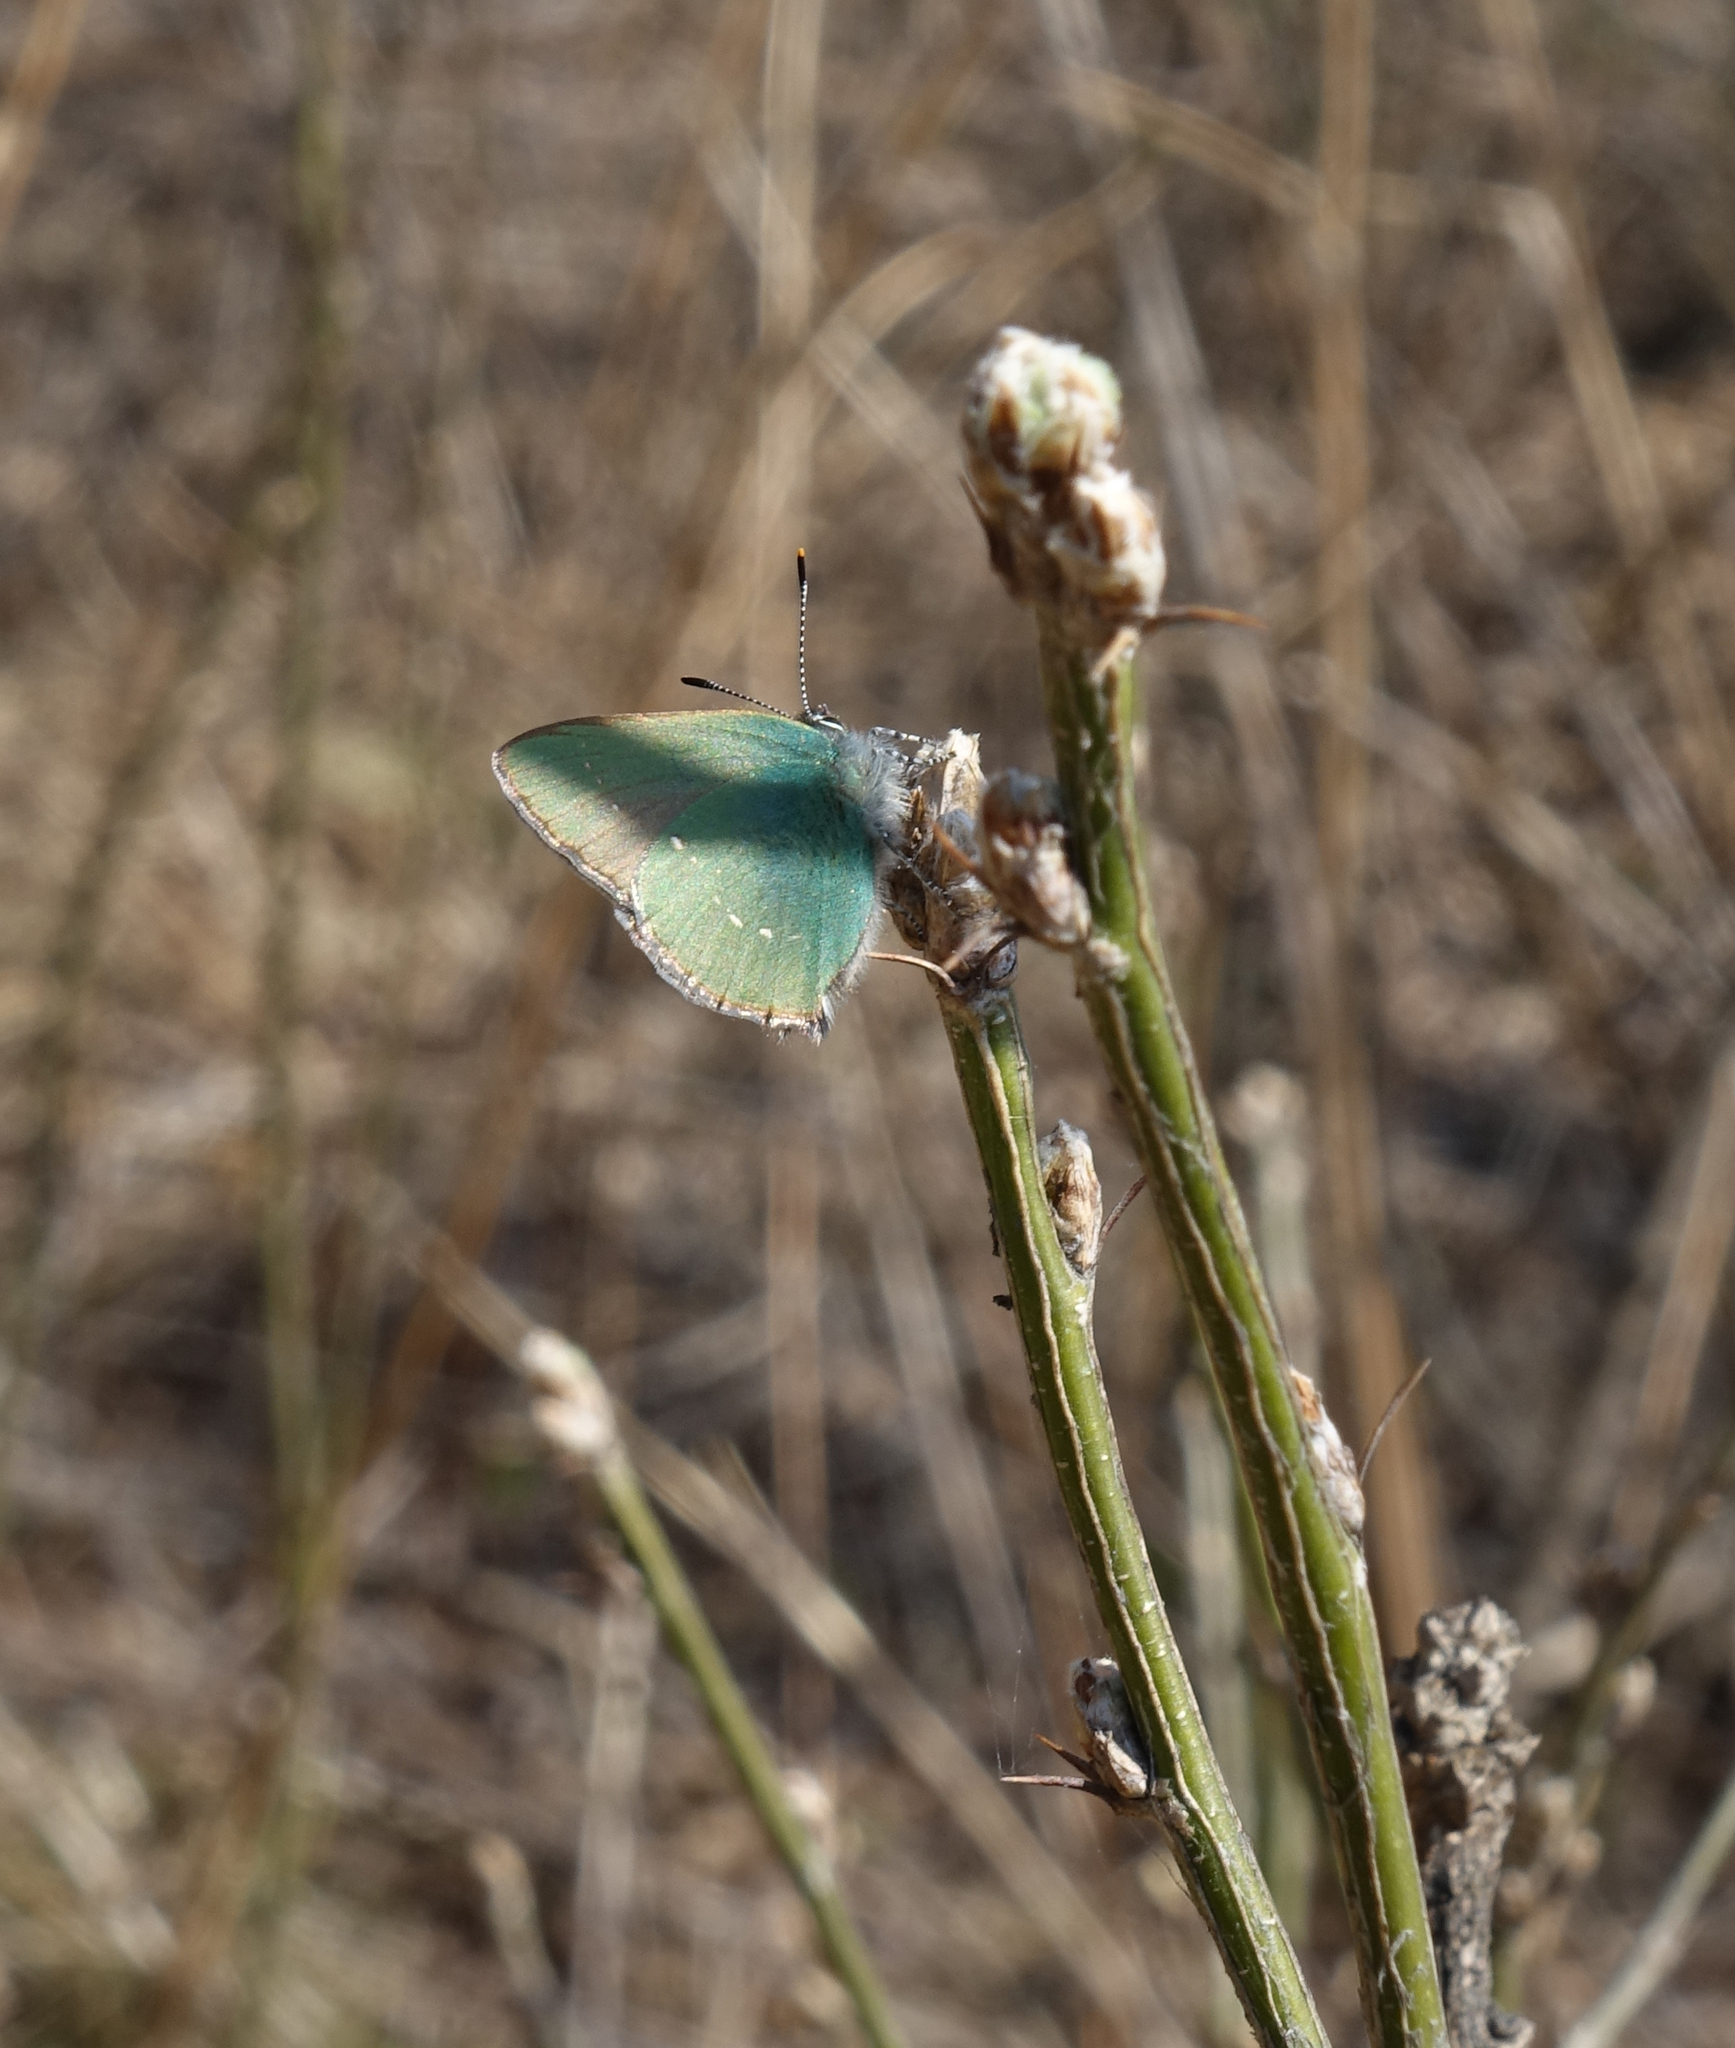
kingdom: Animalia
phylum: Arthropoda
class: Insecta
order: Lepidoptera
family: Lycaenidae
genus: Callophrys
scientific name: Callophrys rubi
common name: Green hairstreak
